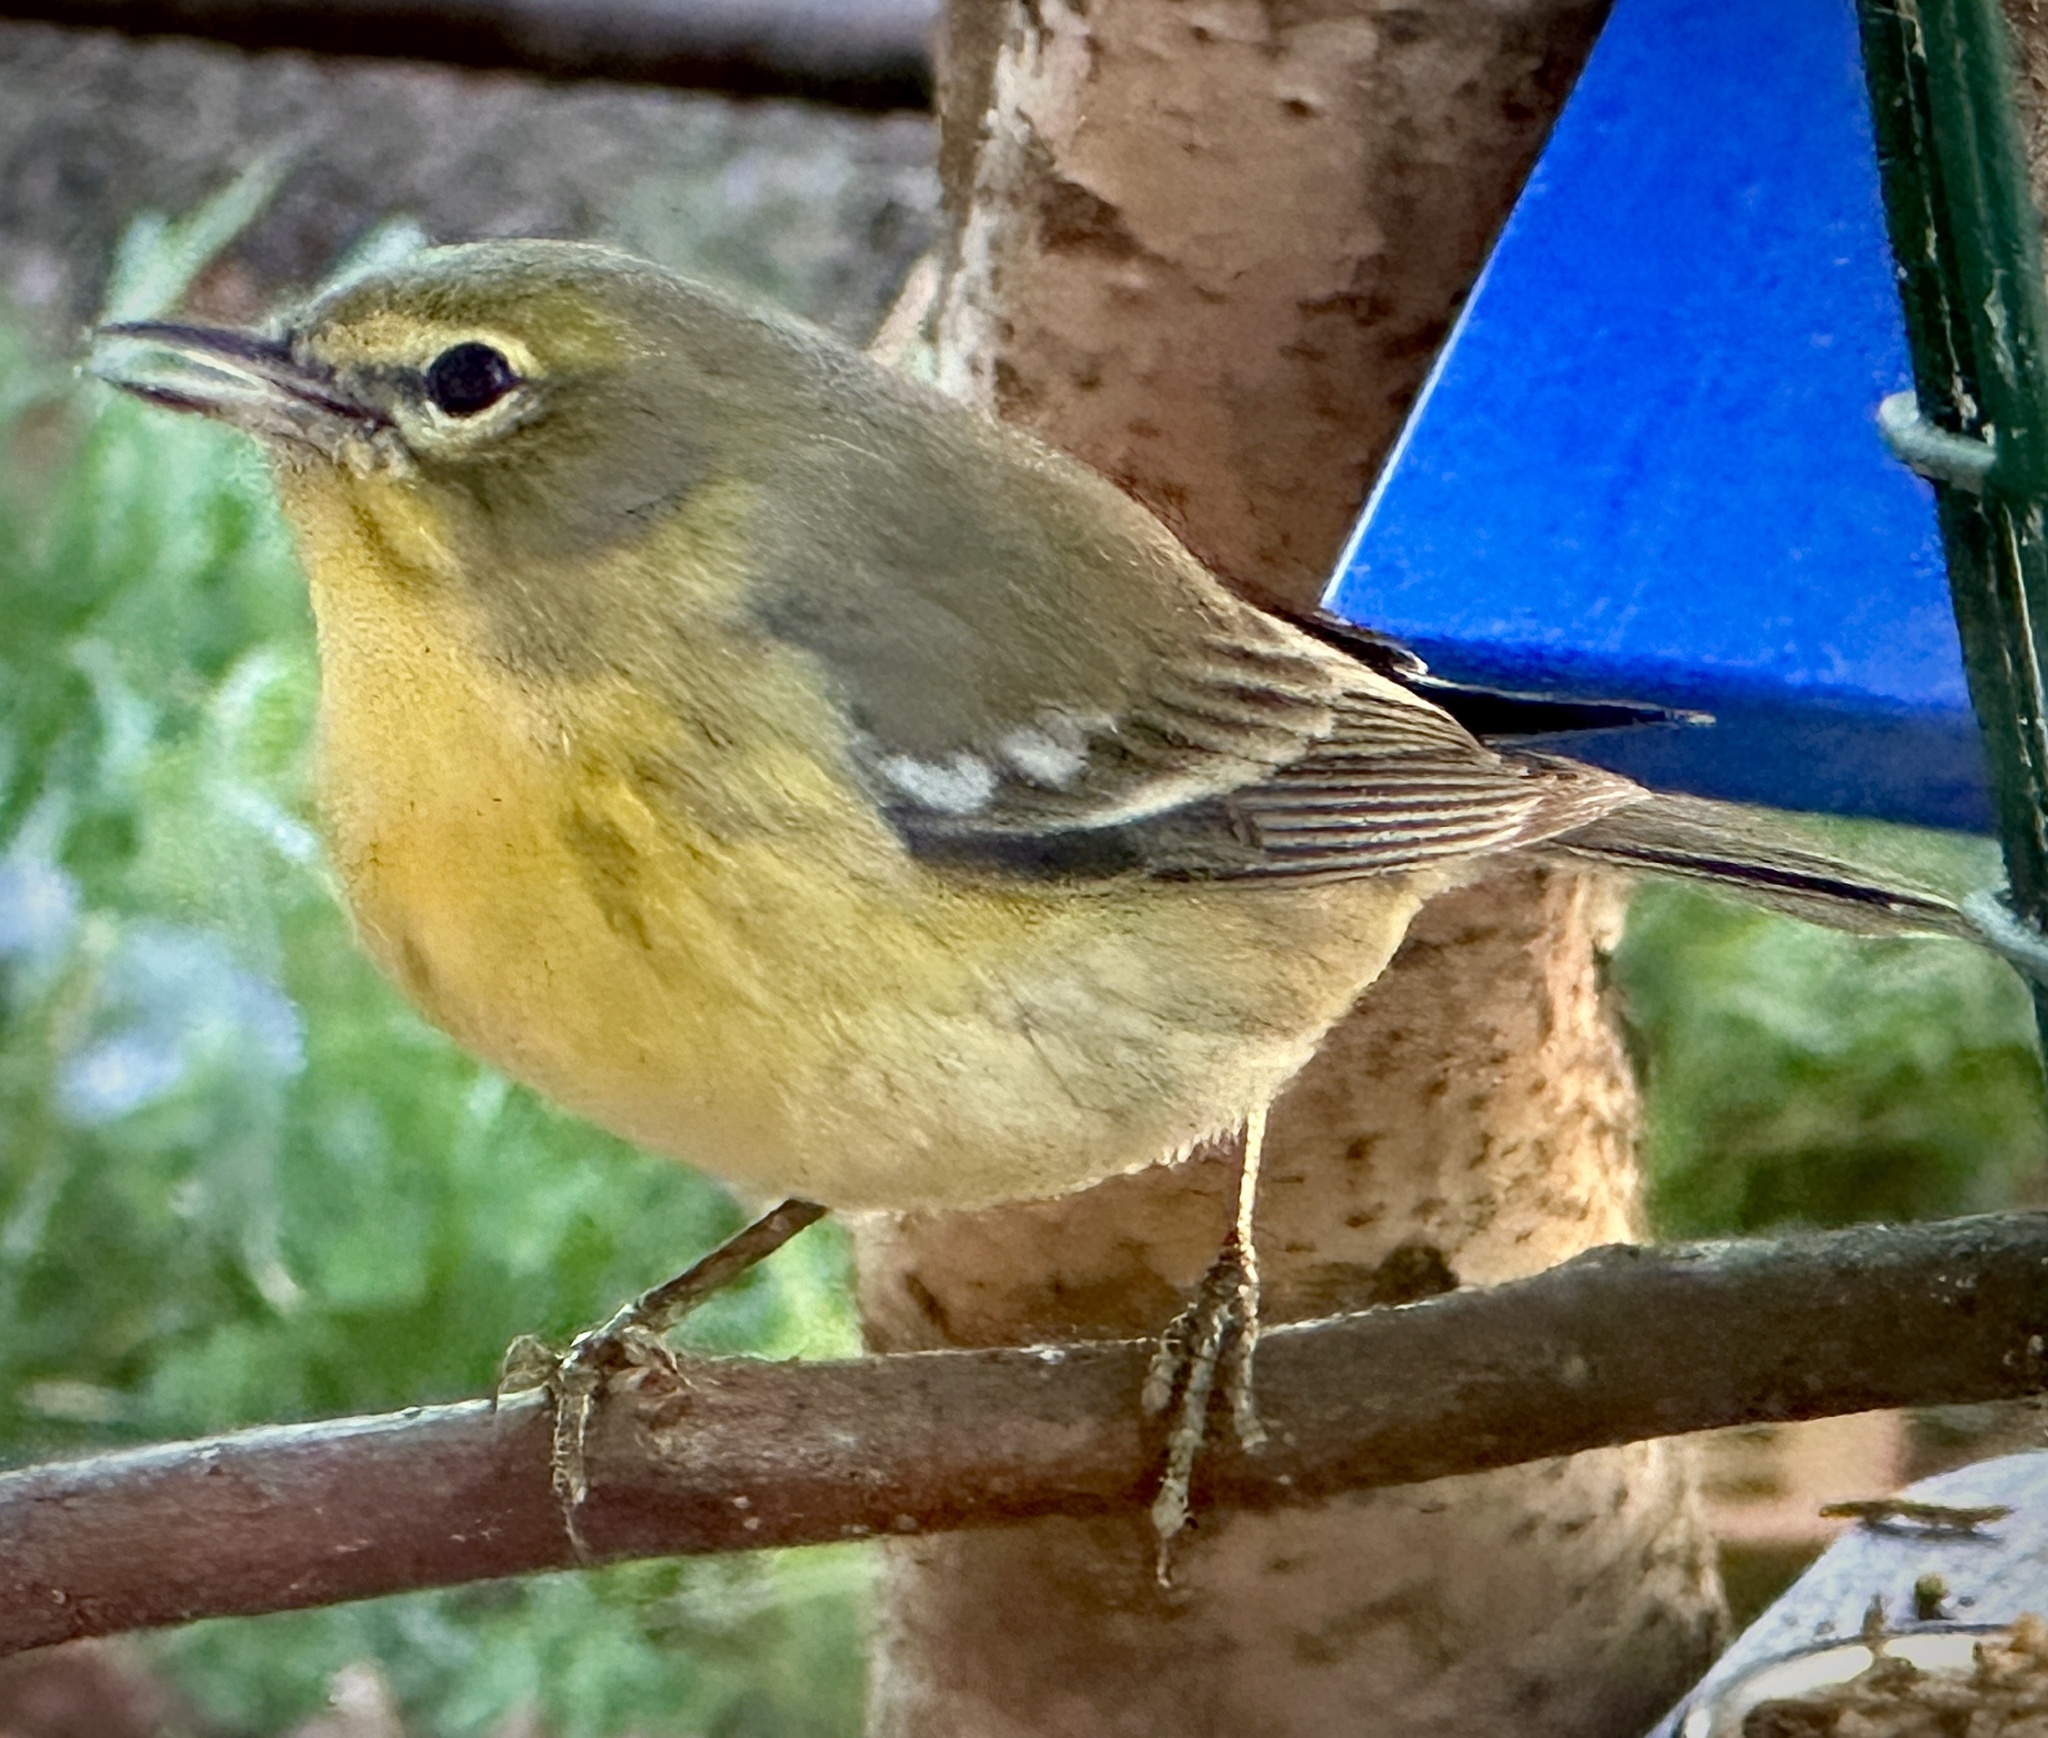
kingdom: Animalia
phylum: Chordata
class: Aves
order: Passeriformes
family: Parulidae
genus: Setophaga
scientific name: Setophaga pinus
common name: Pine warbler
